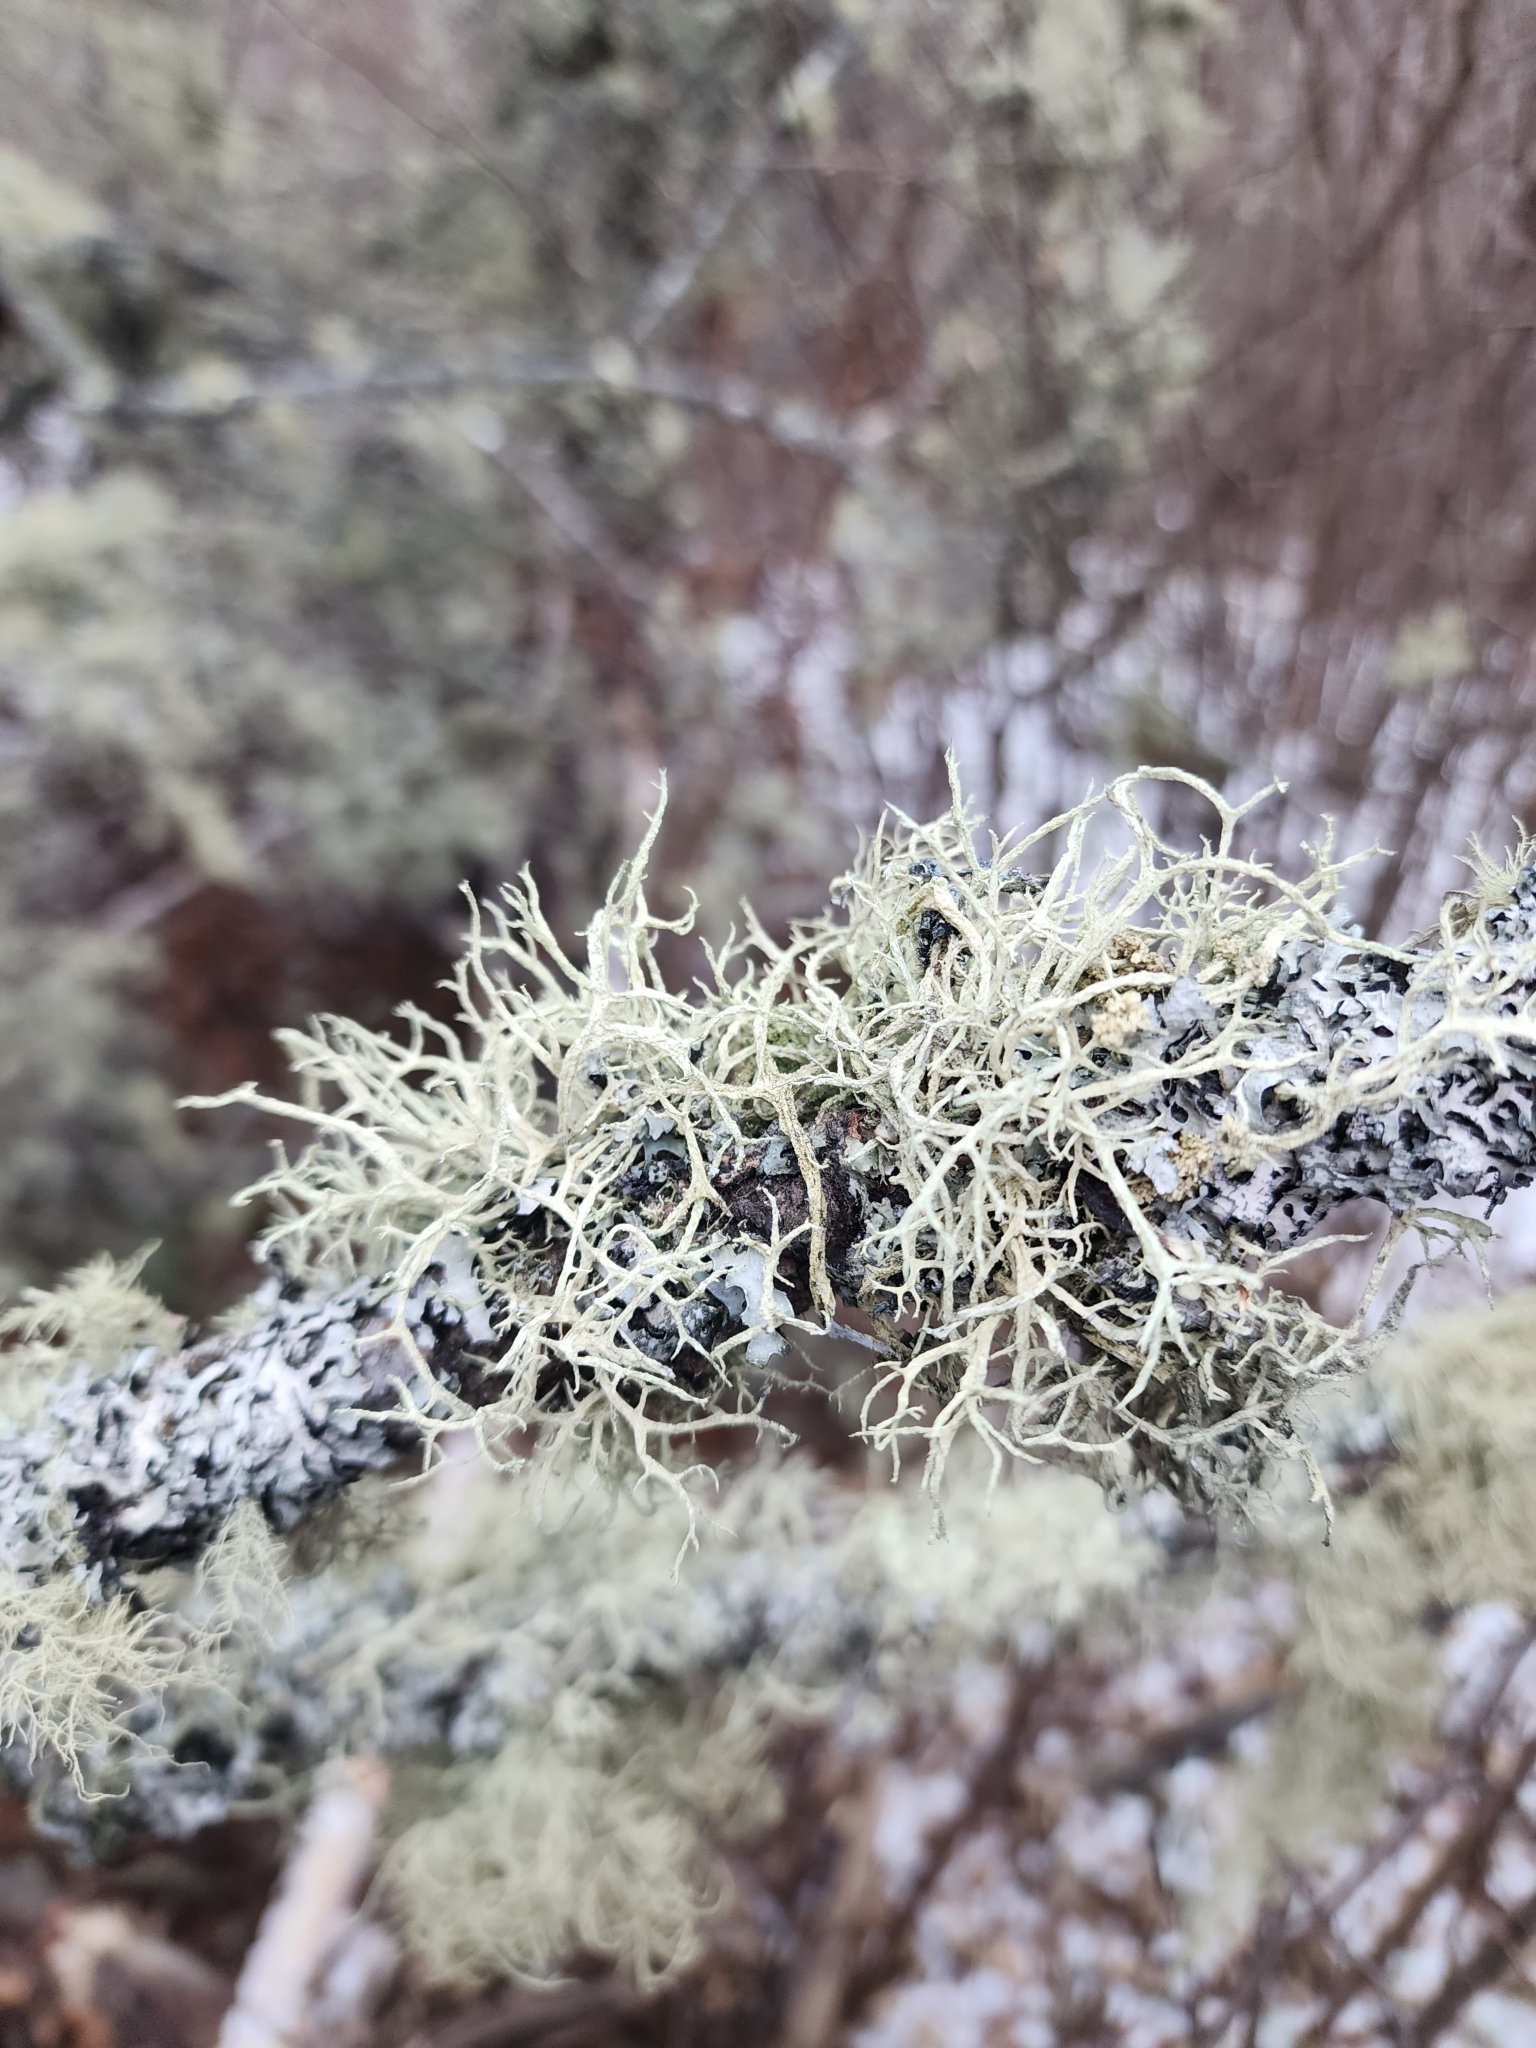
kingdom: Fungi
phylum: Ascomycota
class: Lecanoromycetes
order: Lecanorales
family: Parmeliaceae
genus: Evernia
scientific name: Evernia mesomorpha
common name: Boreal oak moss lichen
